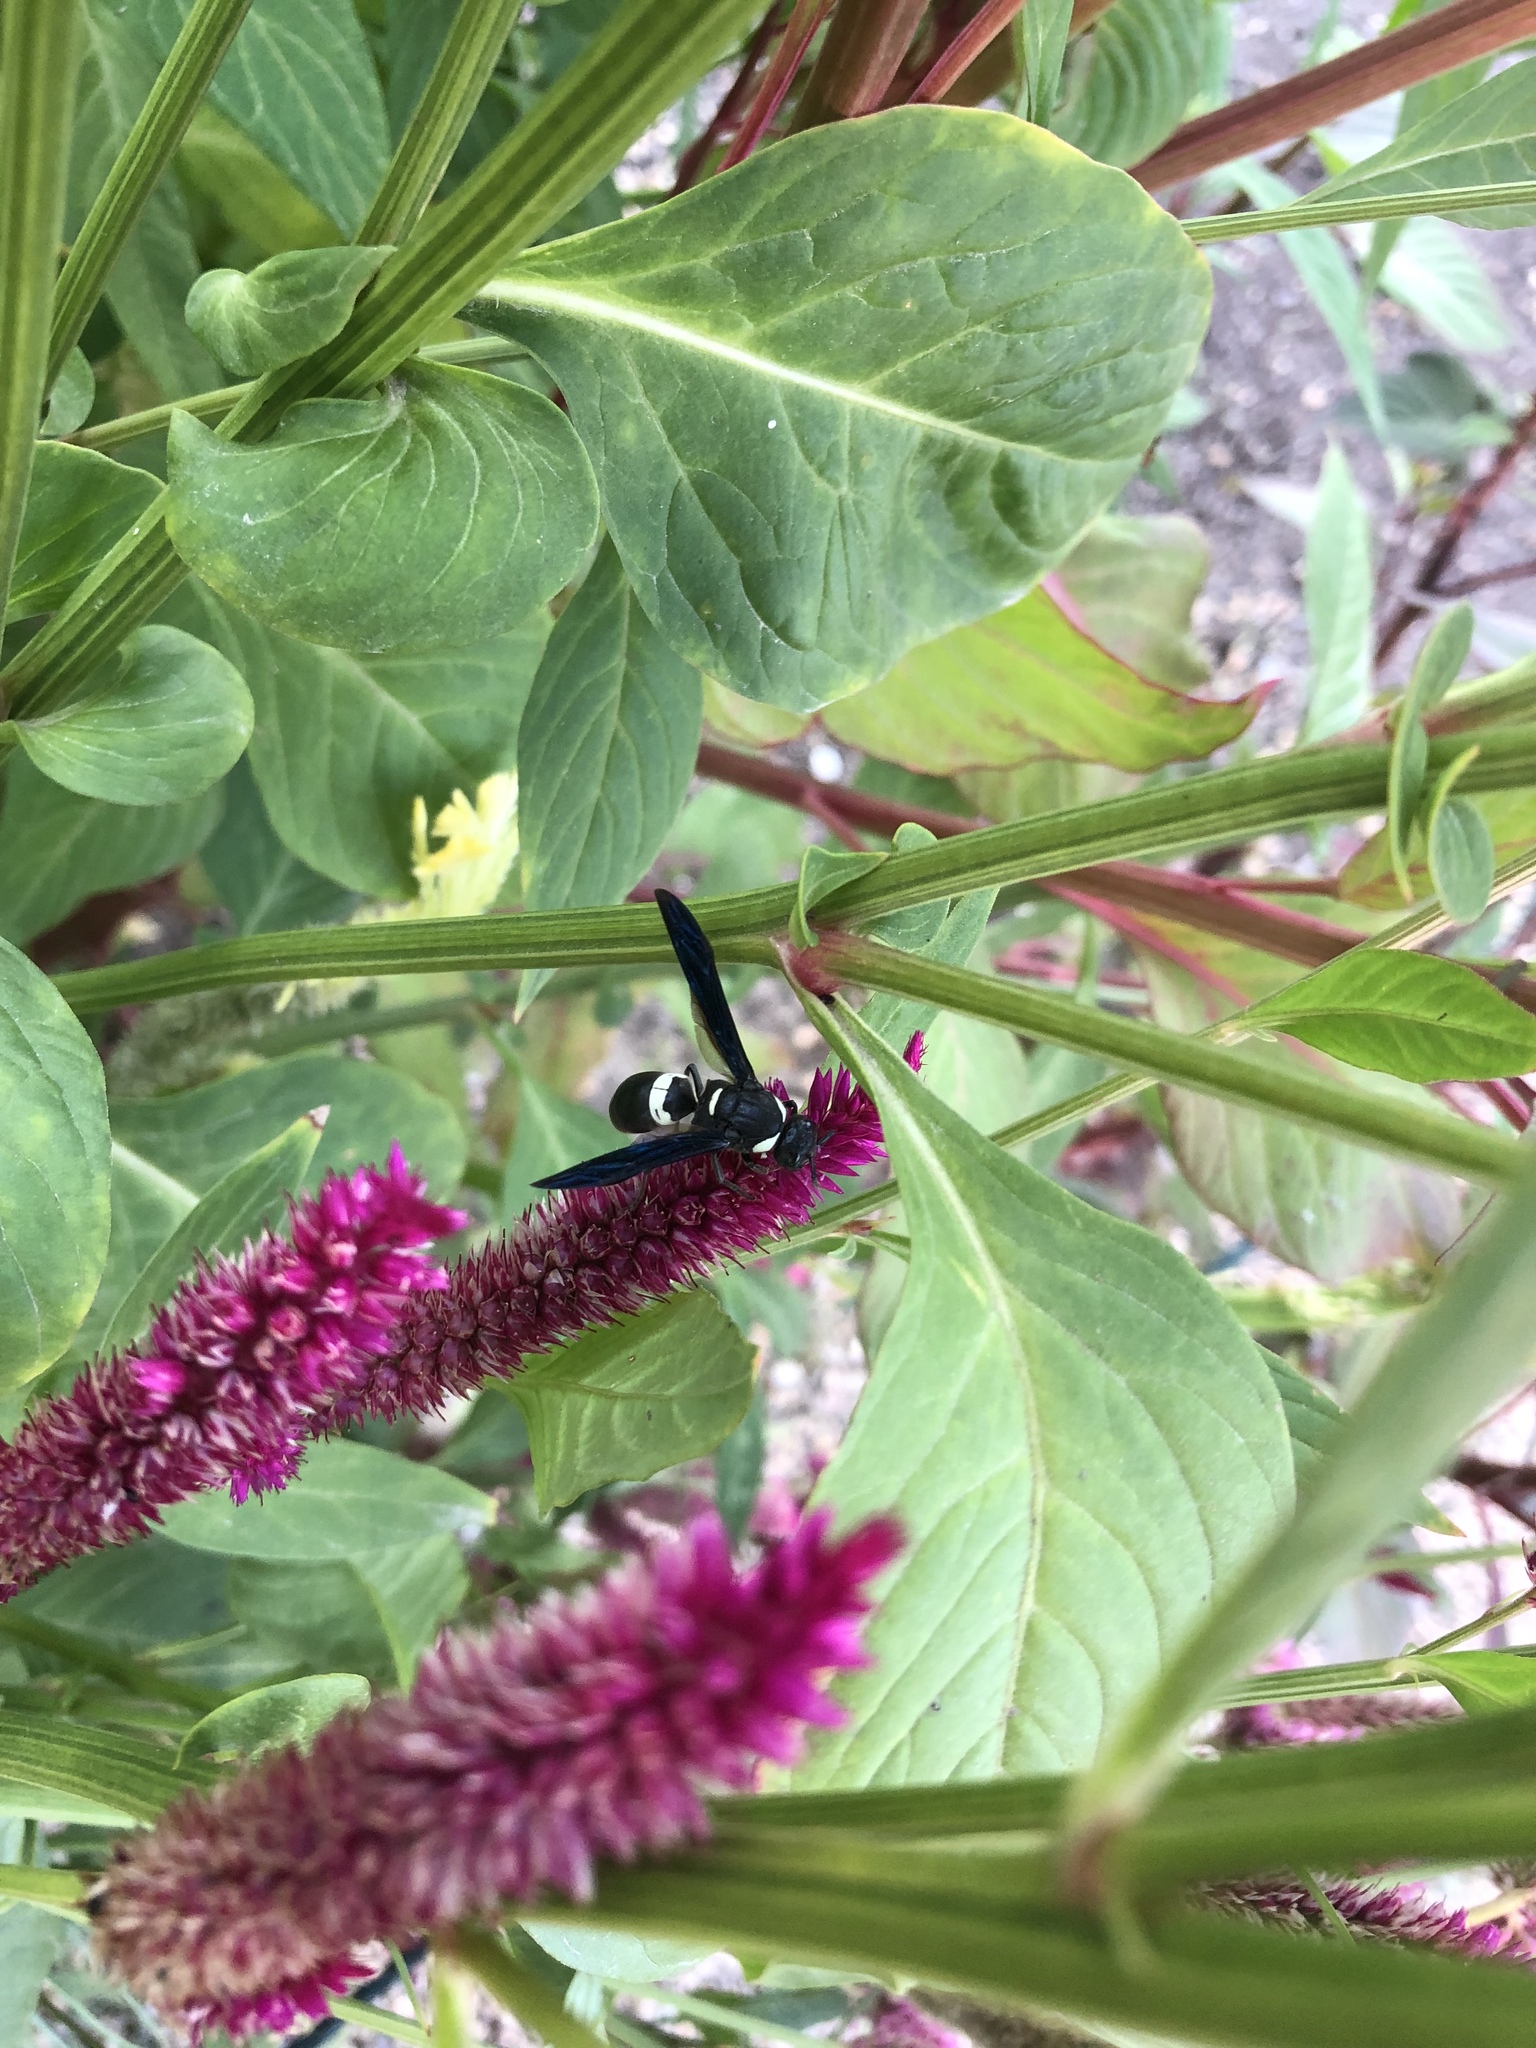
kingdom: Animalia
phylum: Arthropoda
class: Insecta
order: Hymenoptera
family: Eumenidae
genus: Monobia
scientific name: Monobia quadridens
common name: Four-toothed mason wasp
